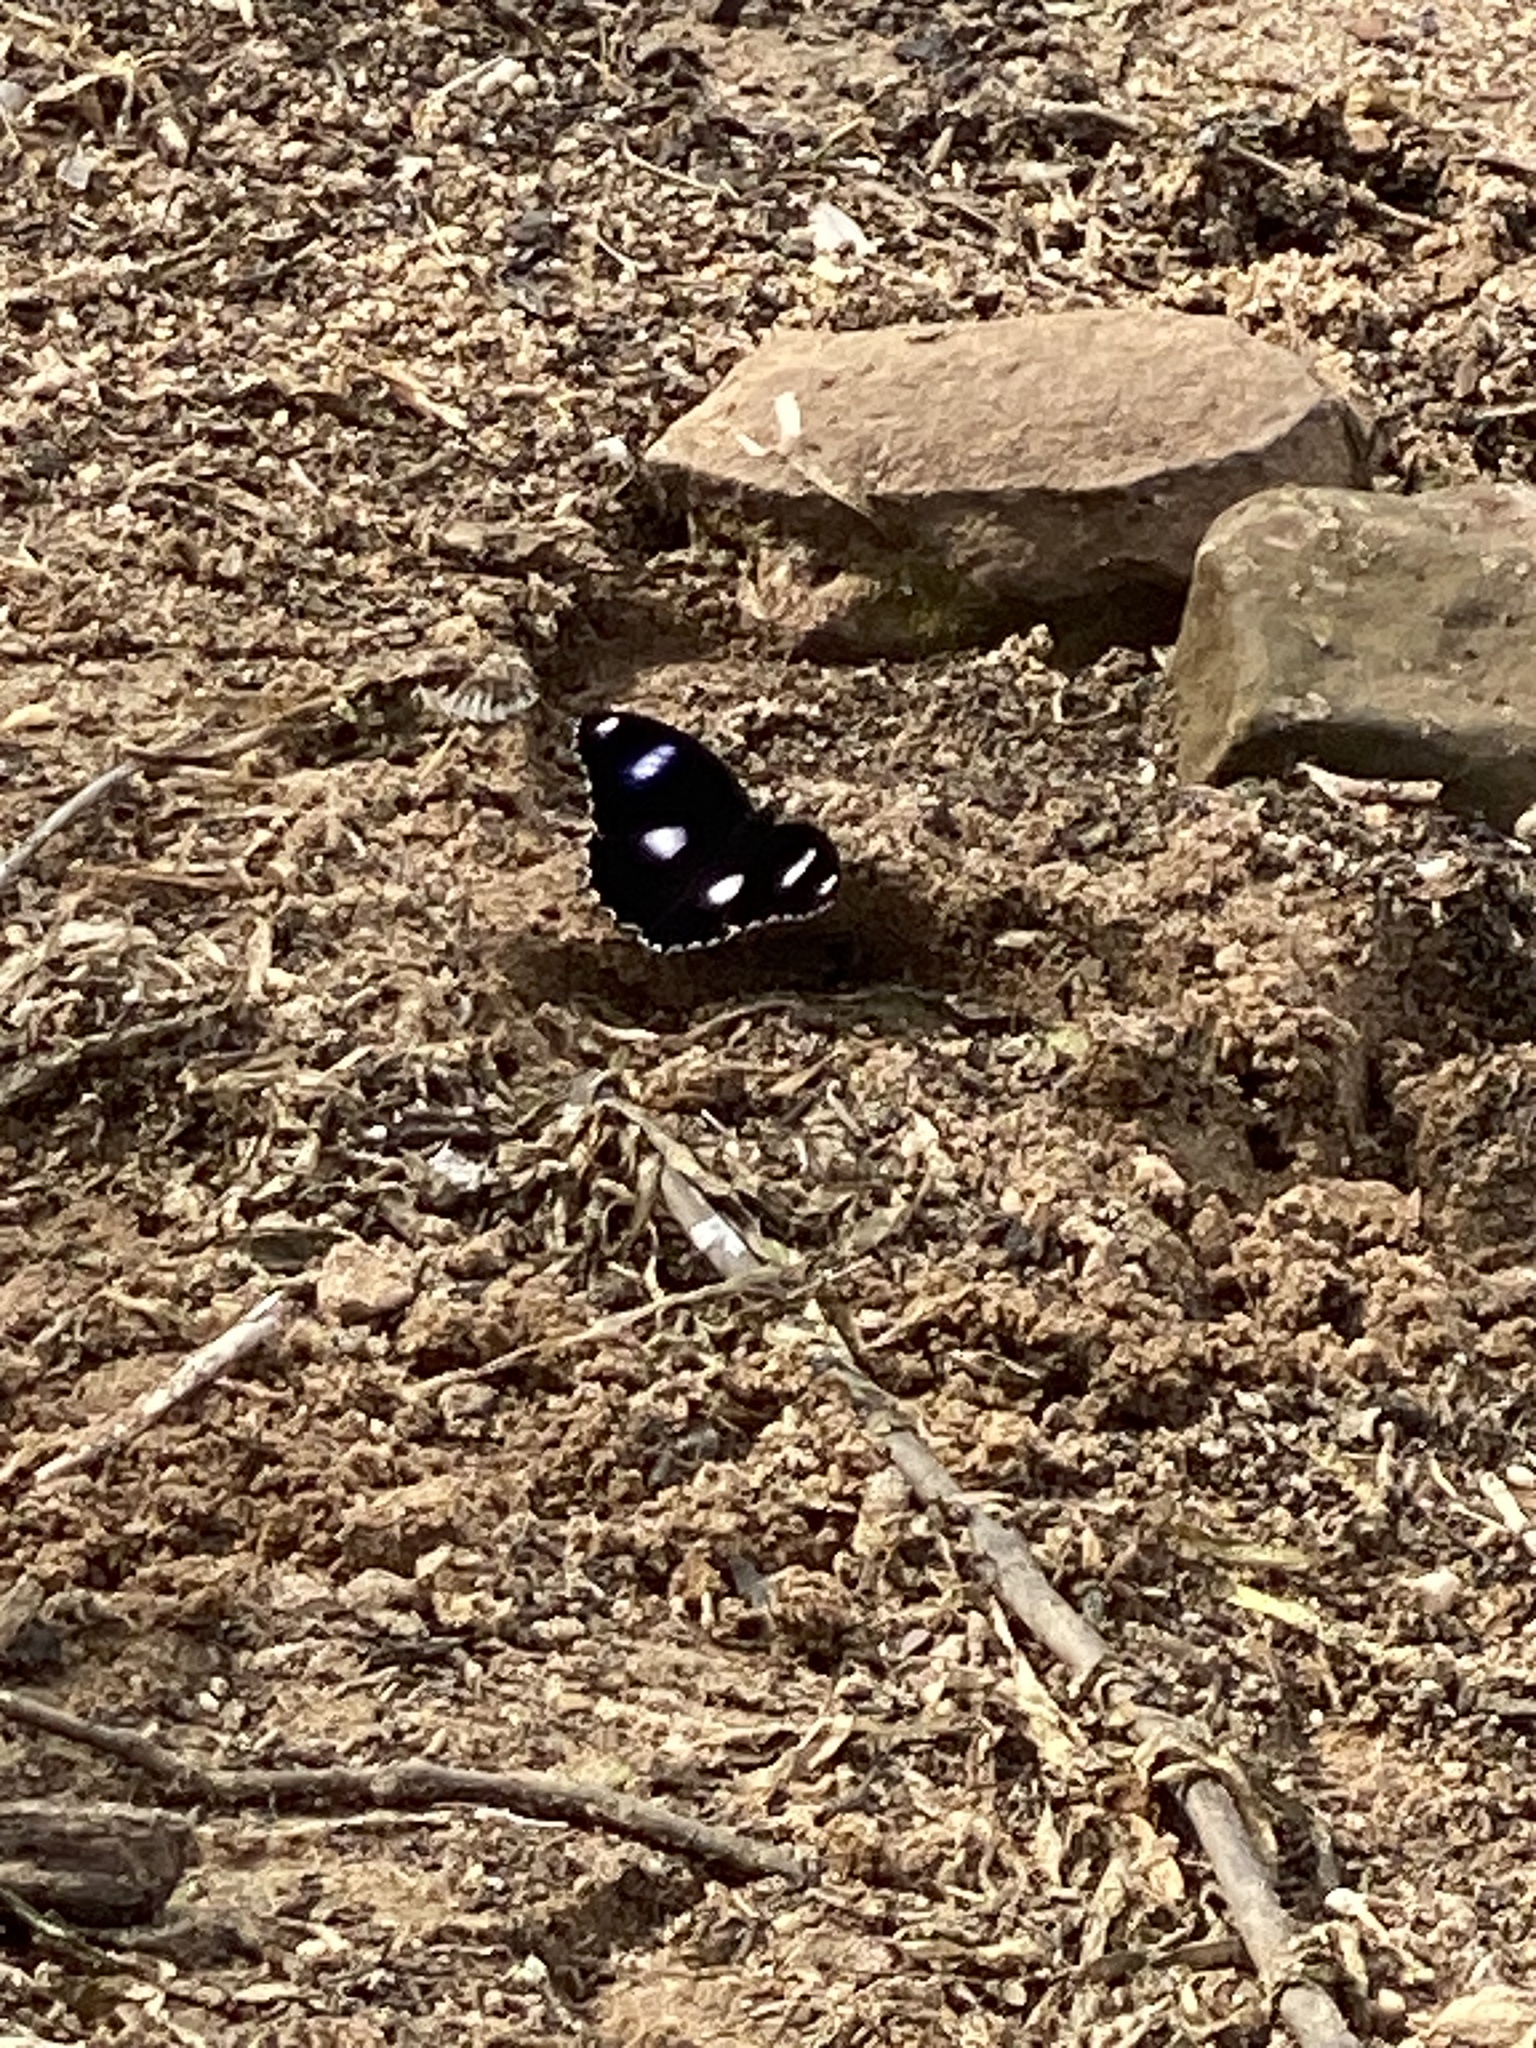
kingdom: Animalia
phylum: Arthropoda
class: Insecta
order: Lepidoptera
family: Nymphalidae
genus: Hypolimnas
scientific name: Hypolimnas bolina
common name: Great eggfly
